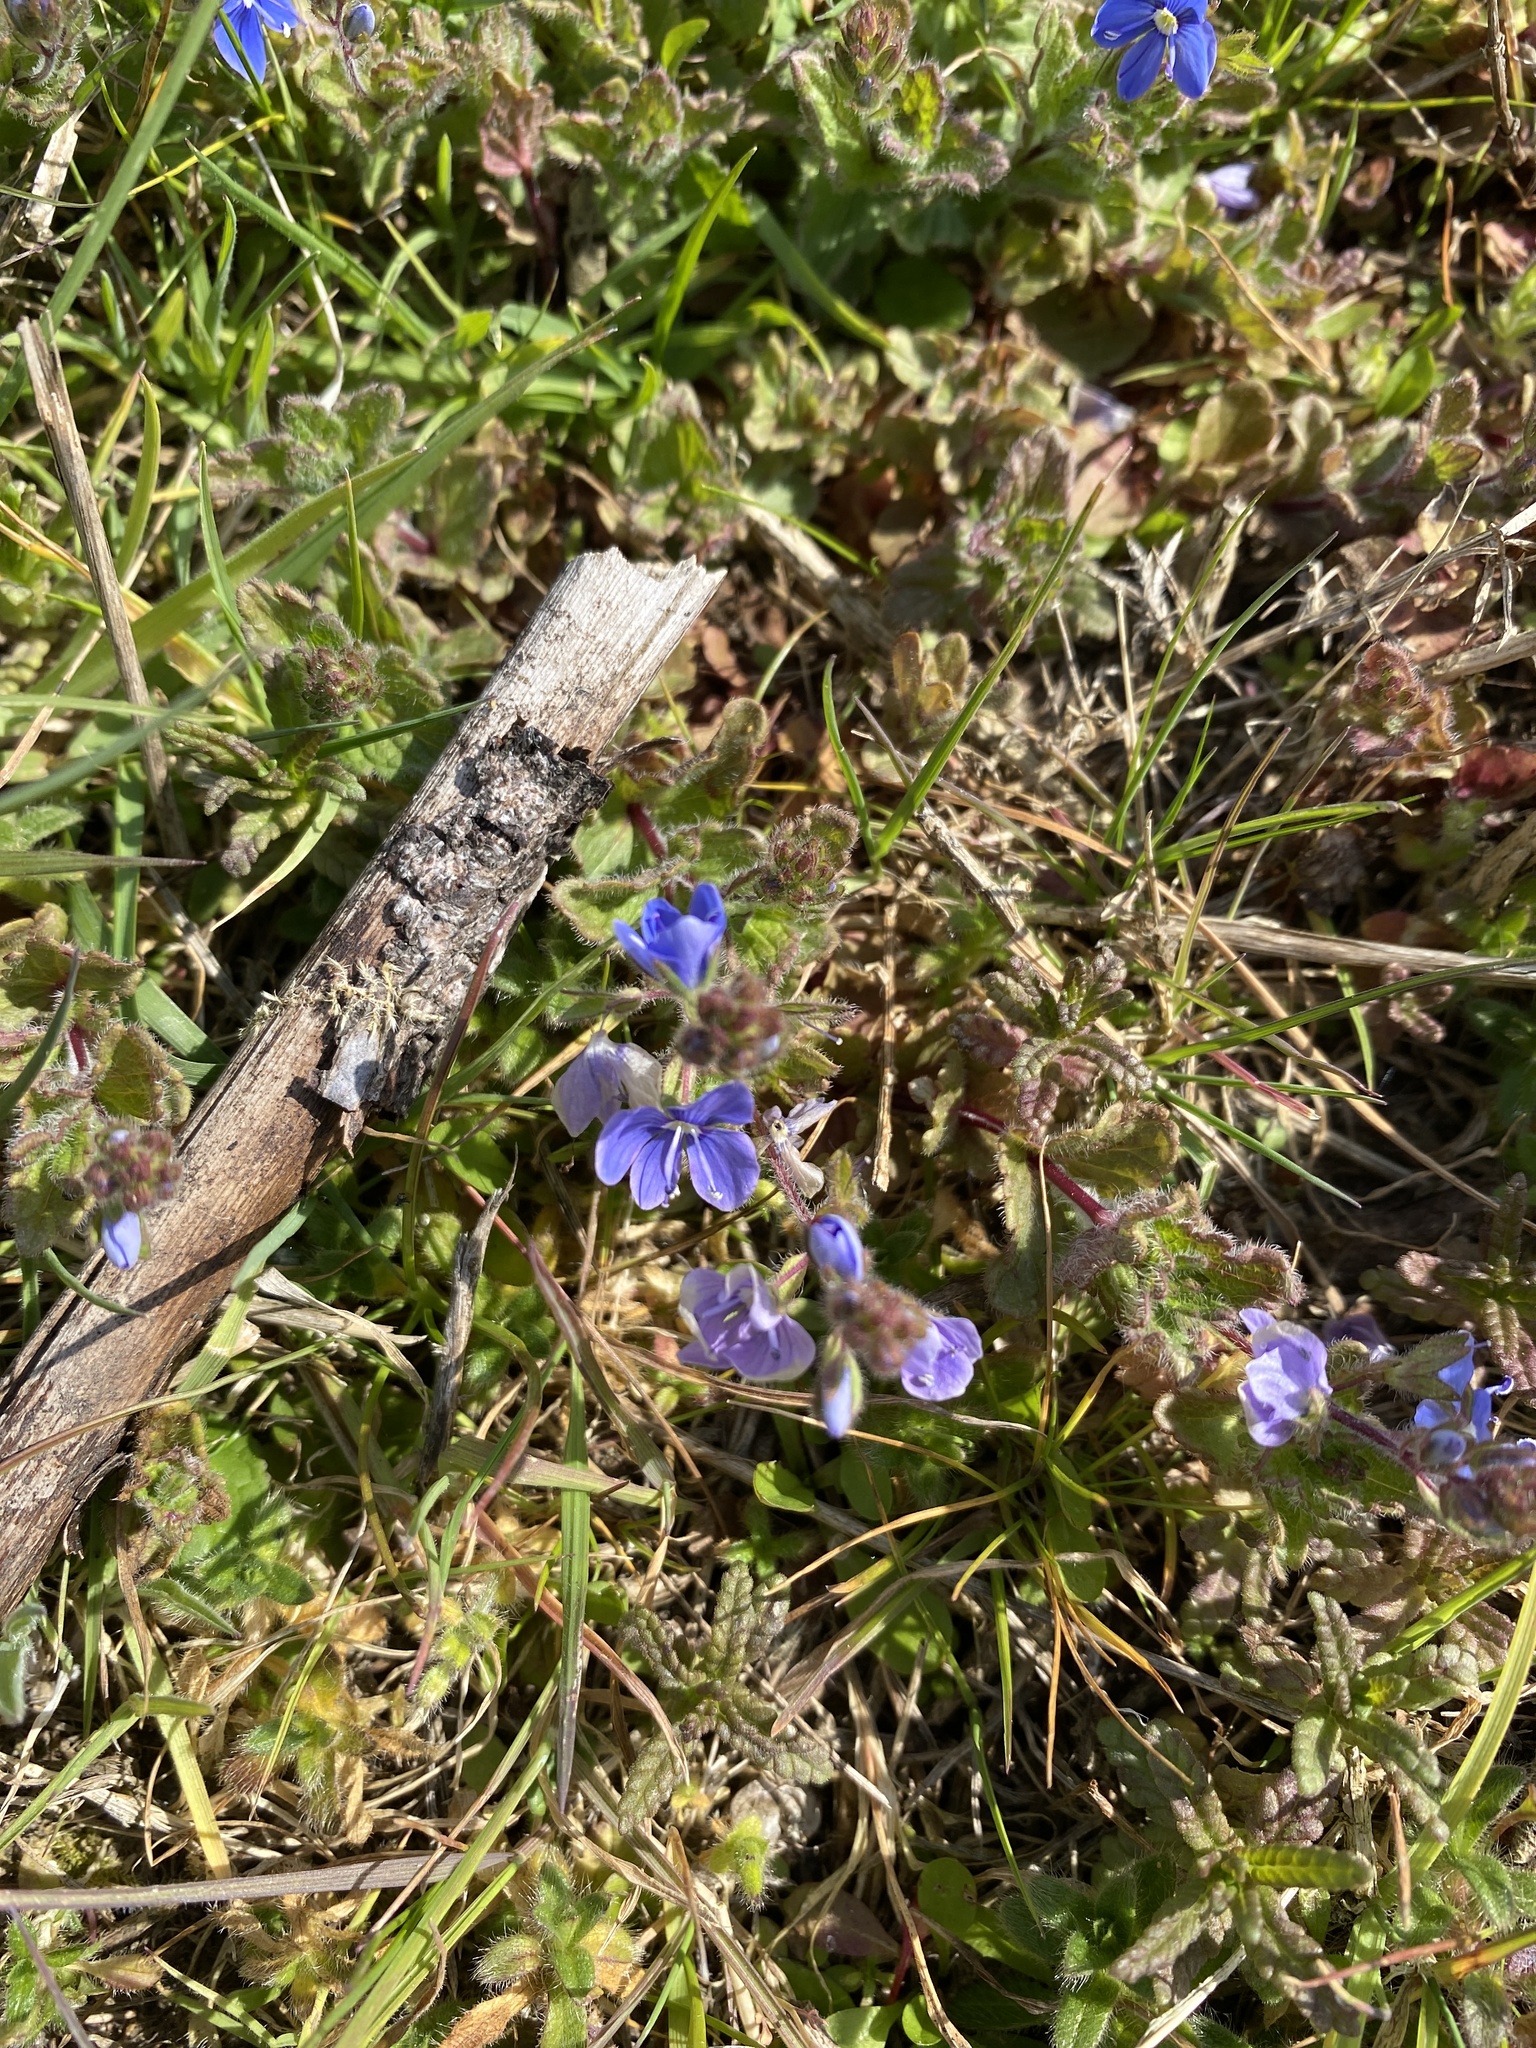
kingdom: Plantae
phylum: Tracheophyta
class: Magnoliopsida
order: Lamiales
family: Plantaginaceae
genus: Veronica
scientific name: Veronica chamaedrys
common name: Germander speedwell
